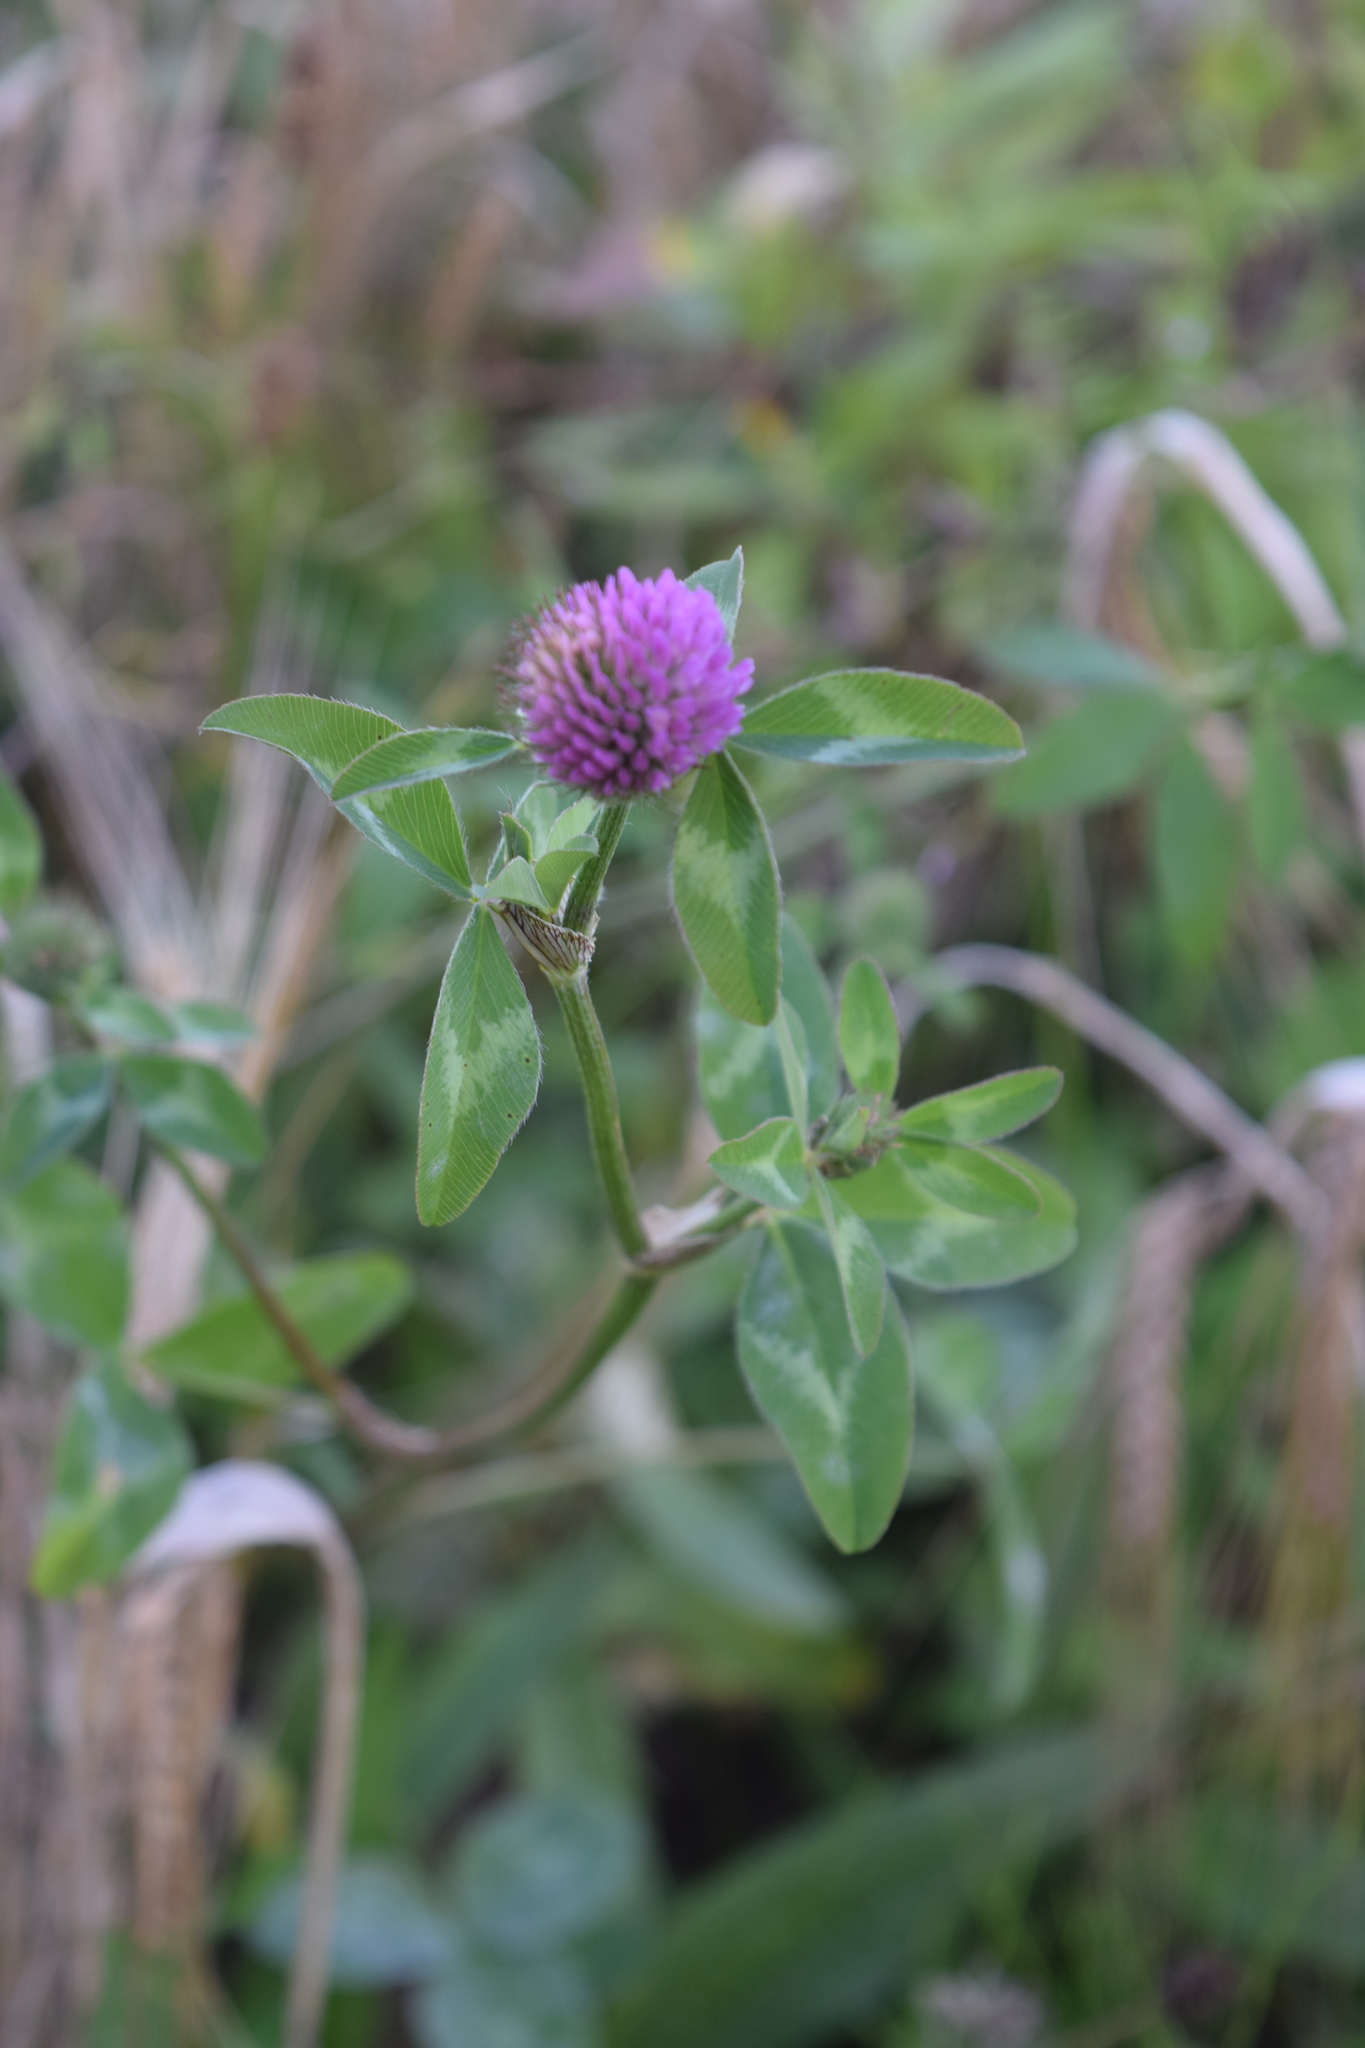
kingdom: Plantae
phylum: Tracheophyta
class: Magnoliopsida
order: Fabales
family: Fabaceae
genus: Trifolium
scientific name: Trifolium pratense
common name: Red clover
